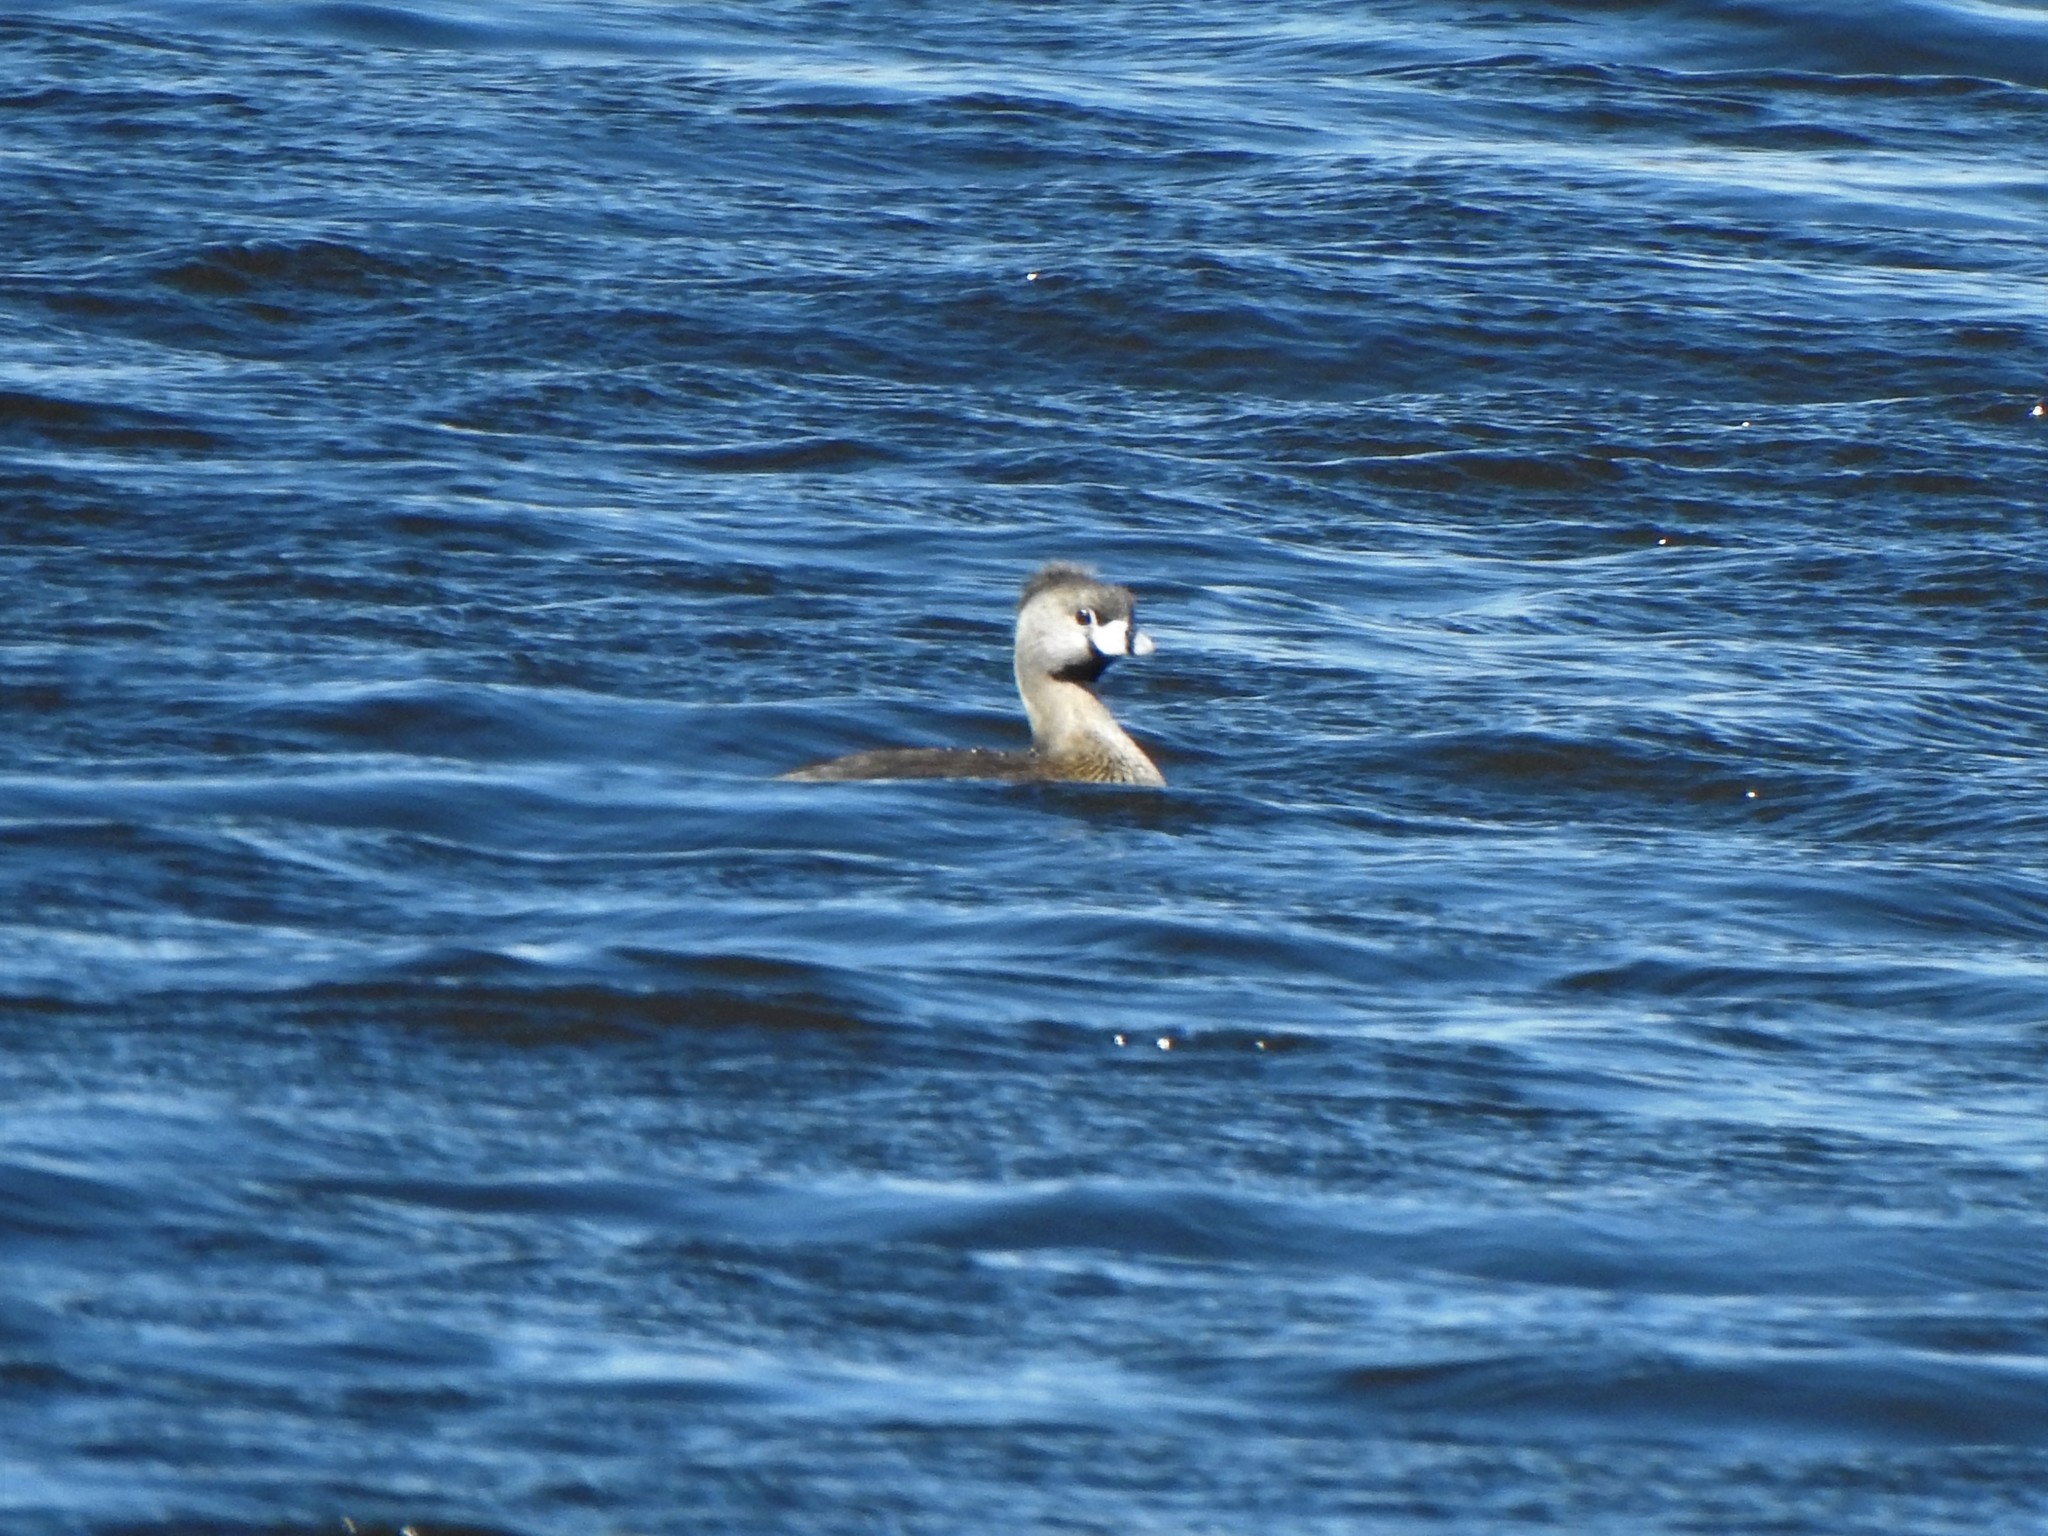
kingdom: Animalia
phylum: Chordata
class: Aves
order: Podicipediformes
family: Podicipedidae
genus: Podilymbus
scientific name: Podilymbus podiceps
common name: Pied-billed grebe
